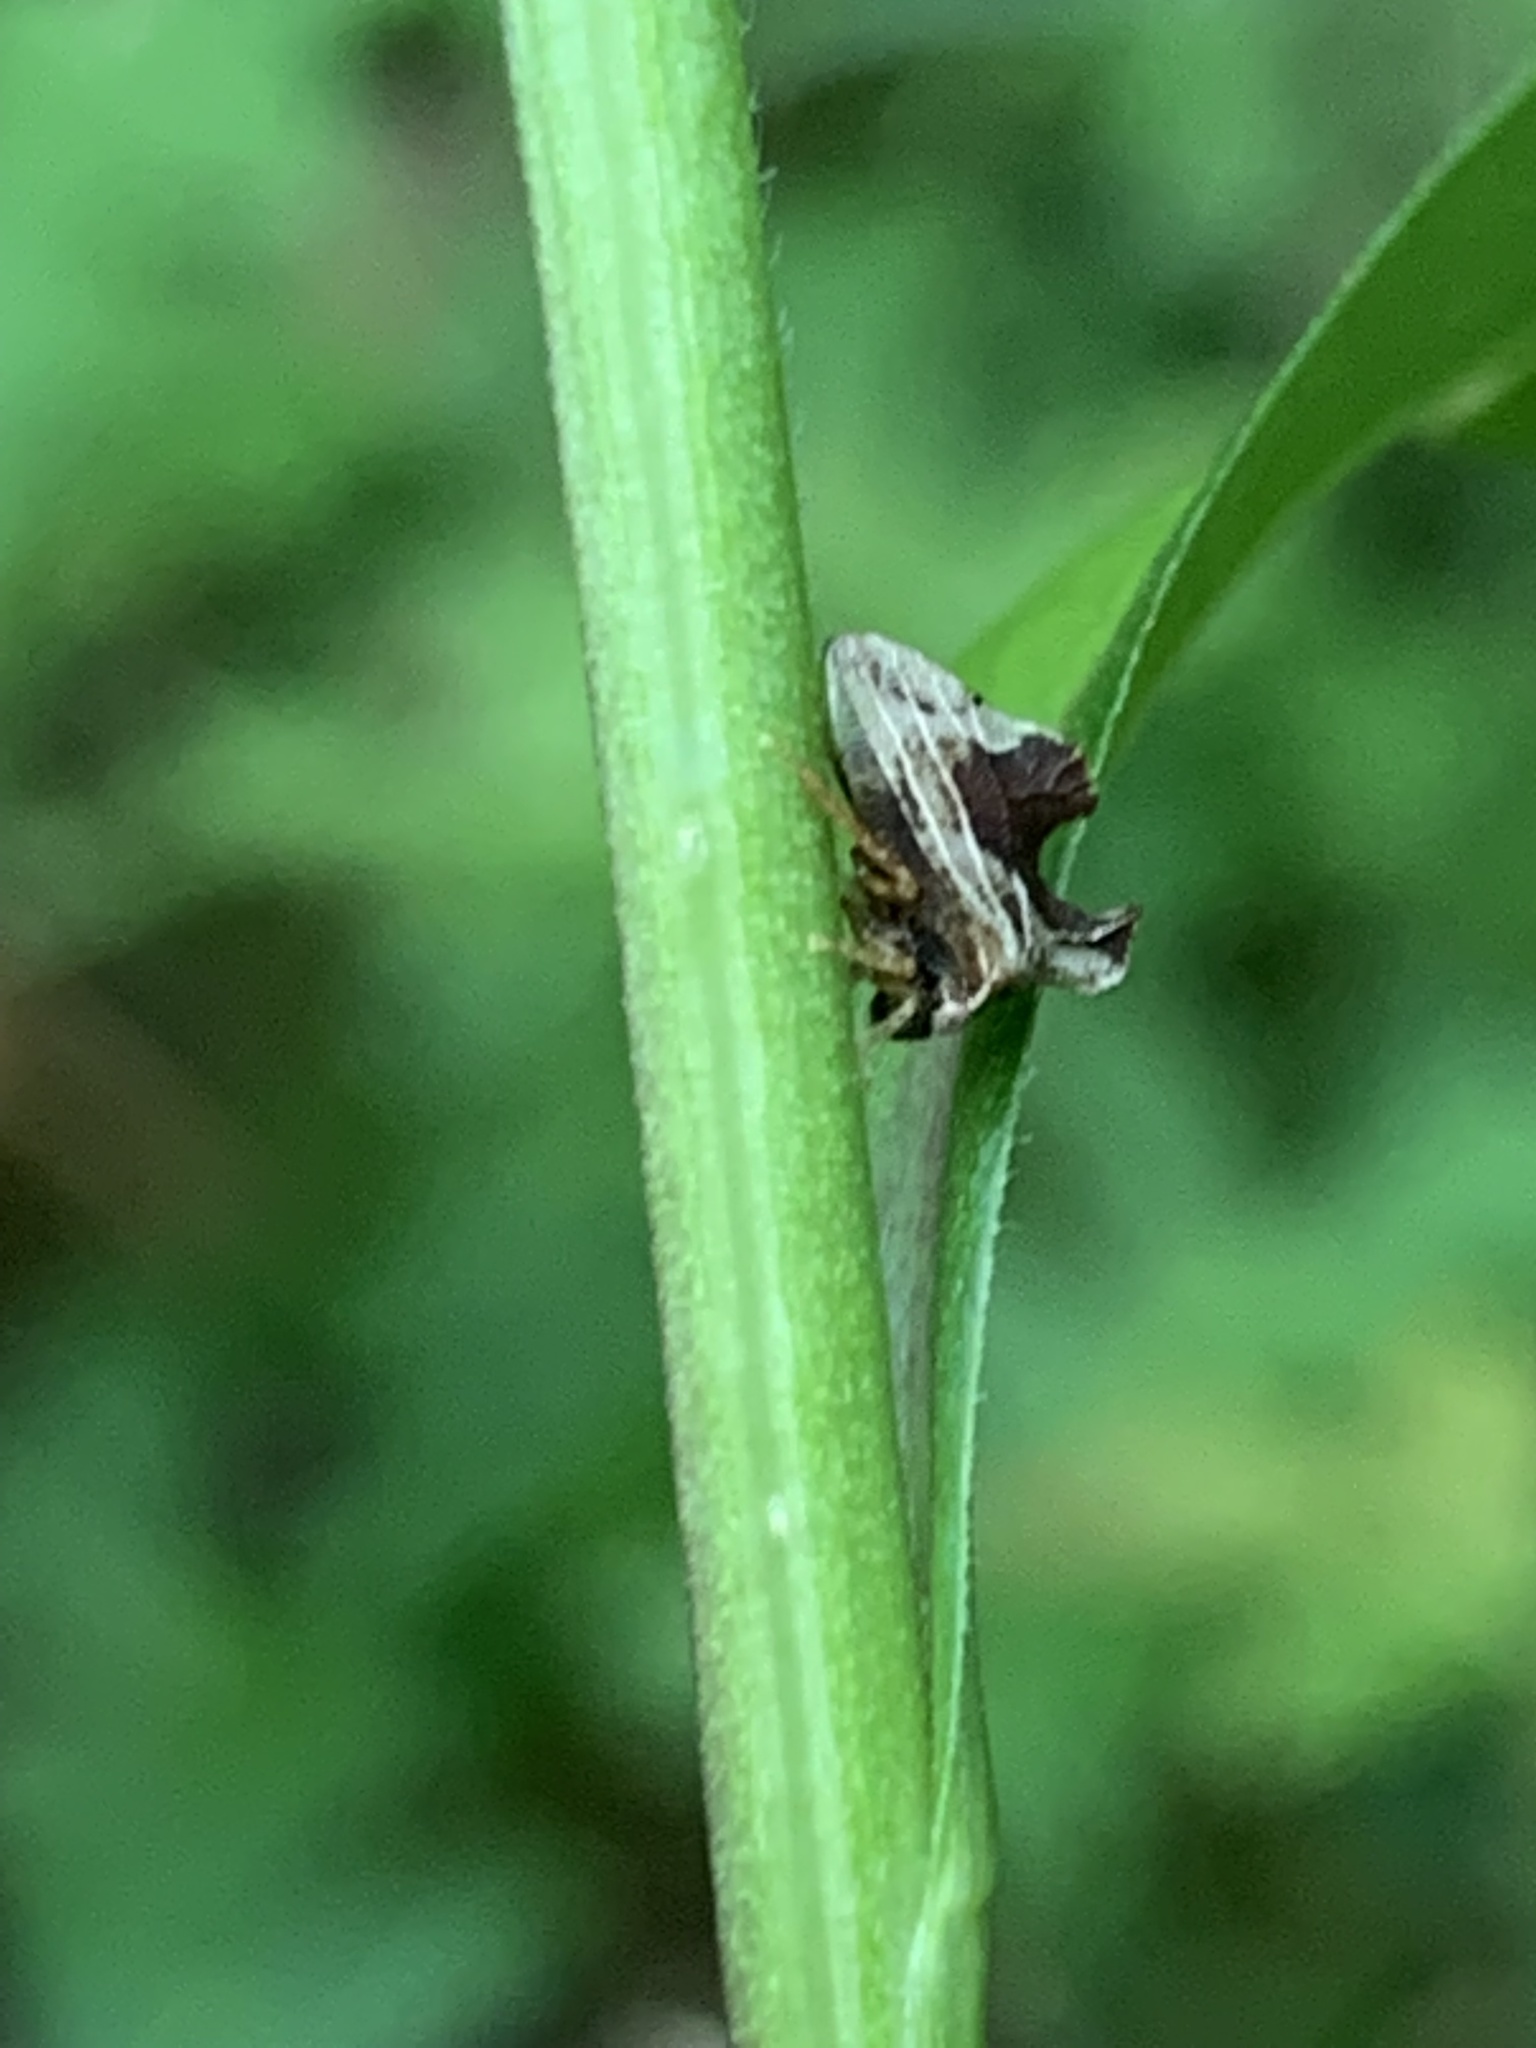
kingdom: Animalia
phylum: Arthropoda
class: Insecta
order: Hemiptera
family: Membracidae
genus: Entylia
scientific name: Entylia carinata
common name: Keeled treehopper
